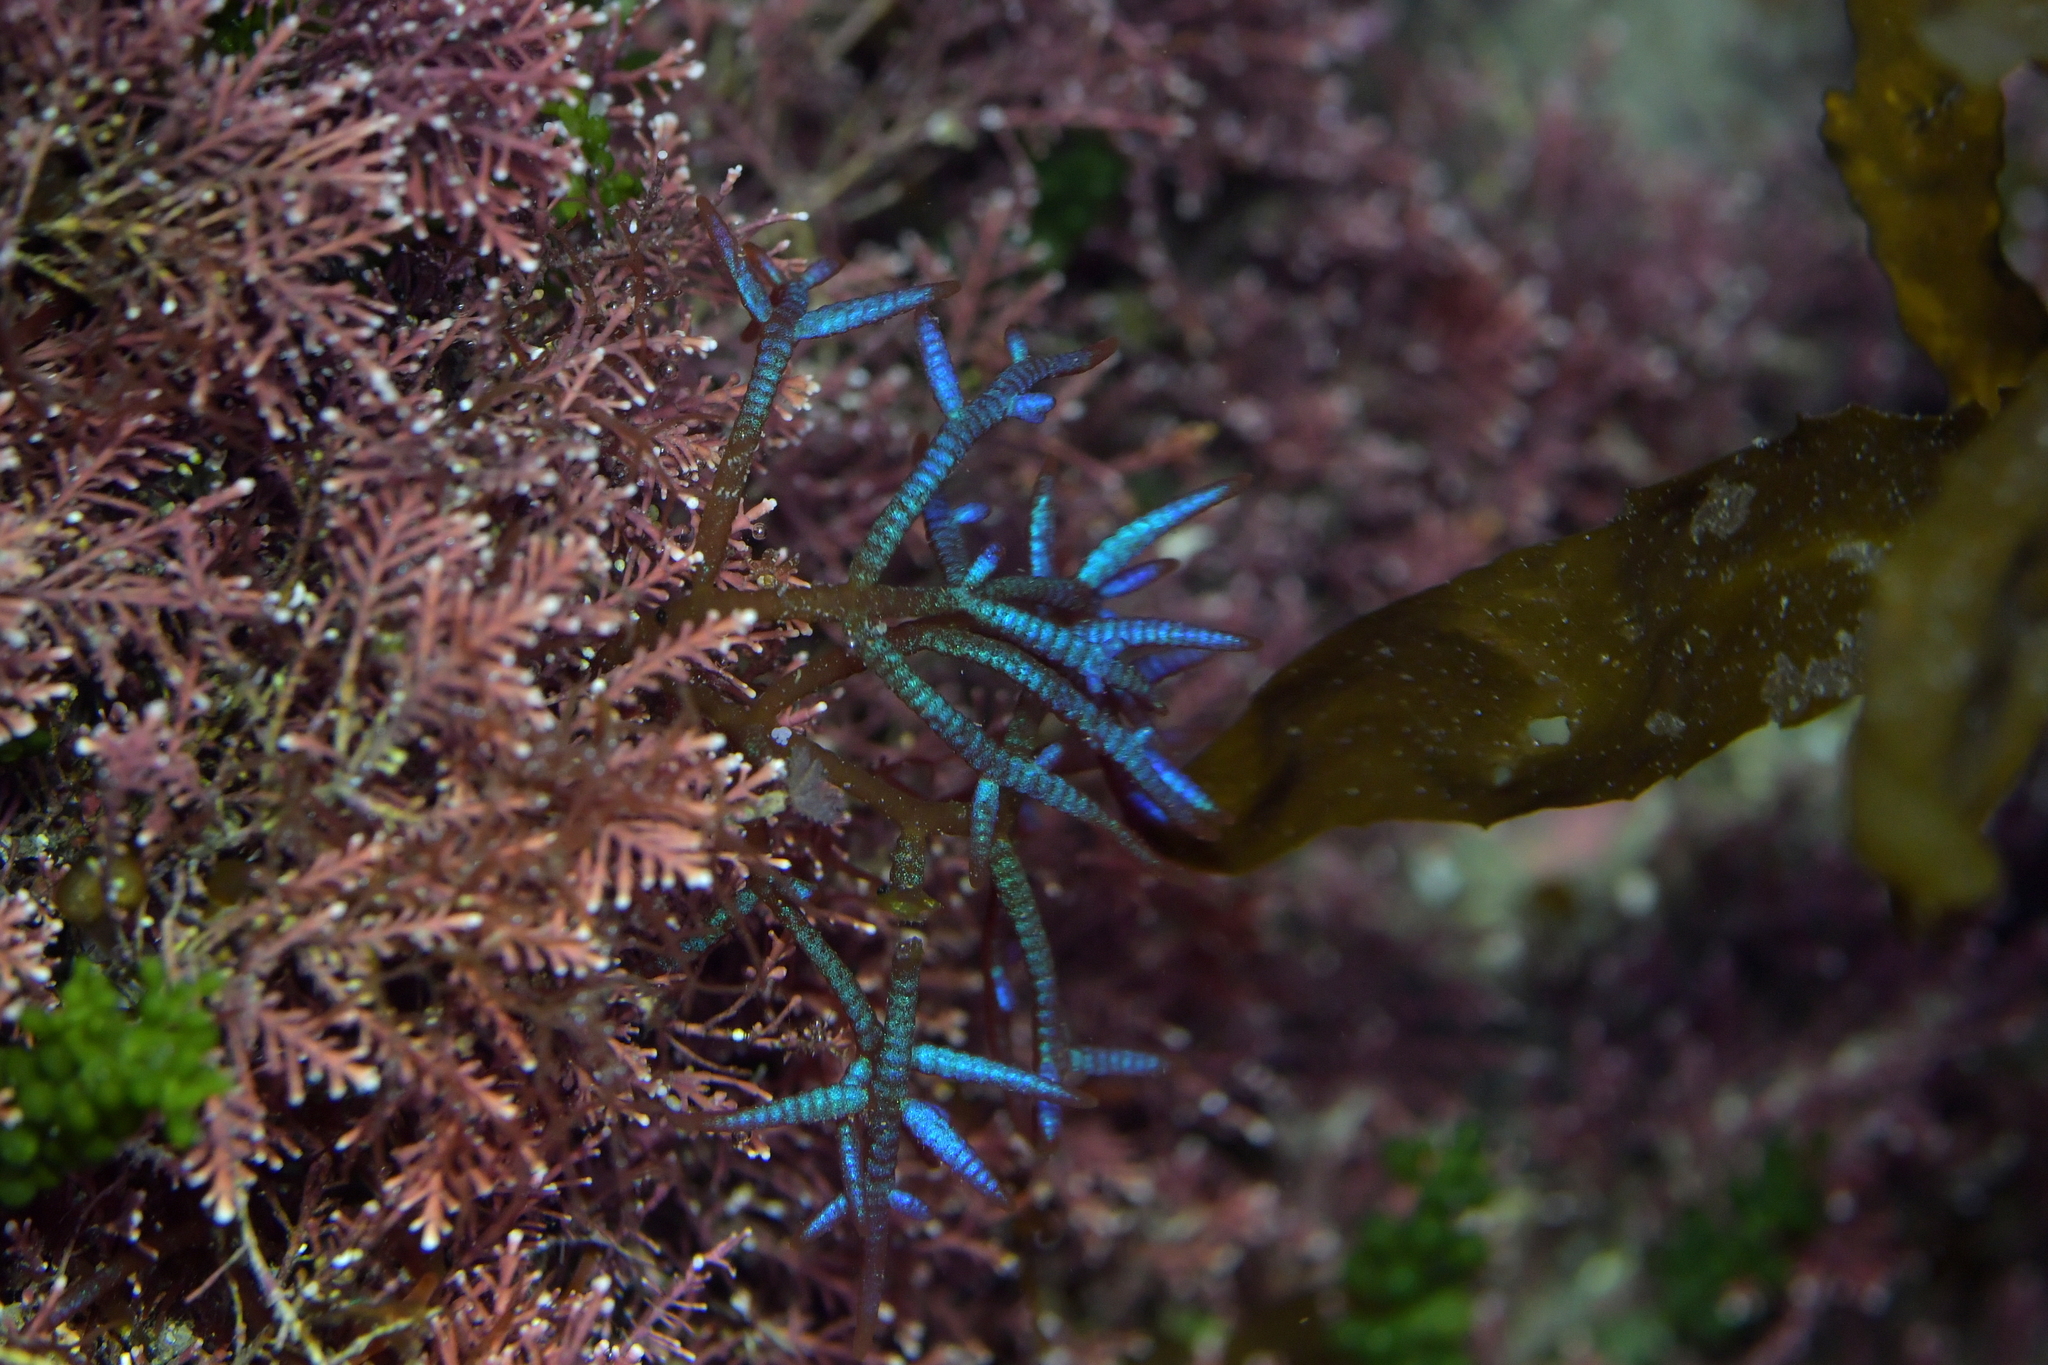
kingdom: Plantae
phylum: Rhodophyta
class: Florideophyceae
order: Rhodymeniales
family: Champiaceae
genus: Champia
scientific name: Champia laingii
